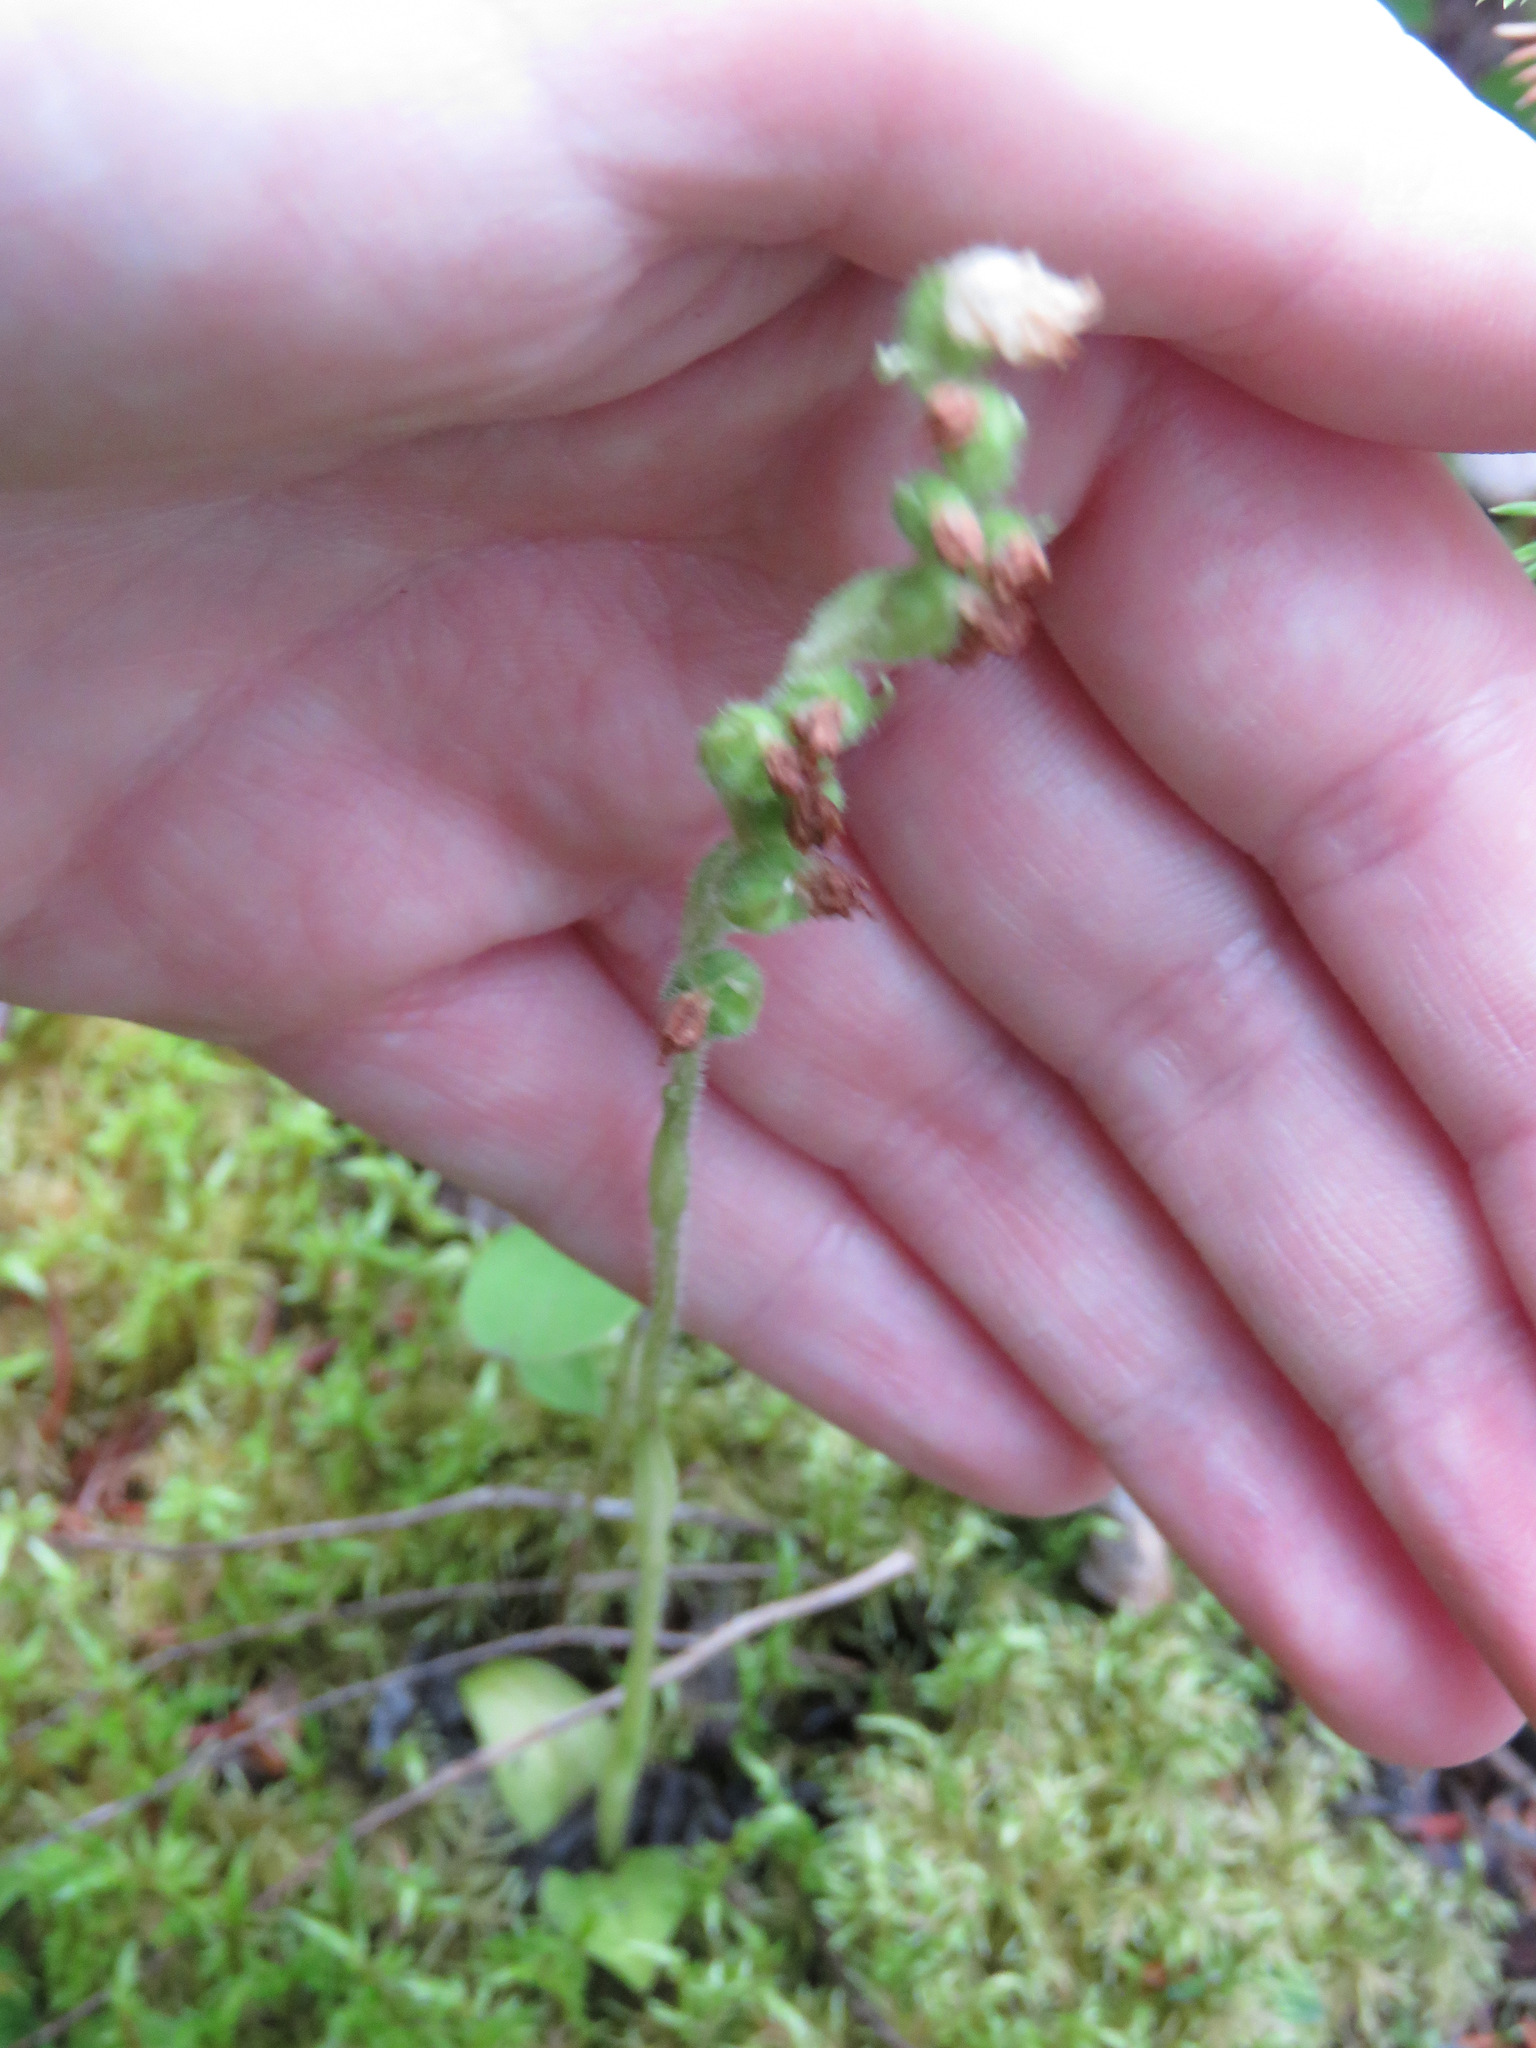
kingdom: Plantae
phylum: Tracheophyta
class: Liliopsida
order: Asparagales
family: Orchidaceae
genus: Goodyera
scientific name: Goodyera repens
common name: Creeping lady's-tresses
